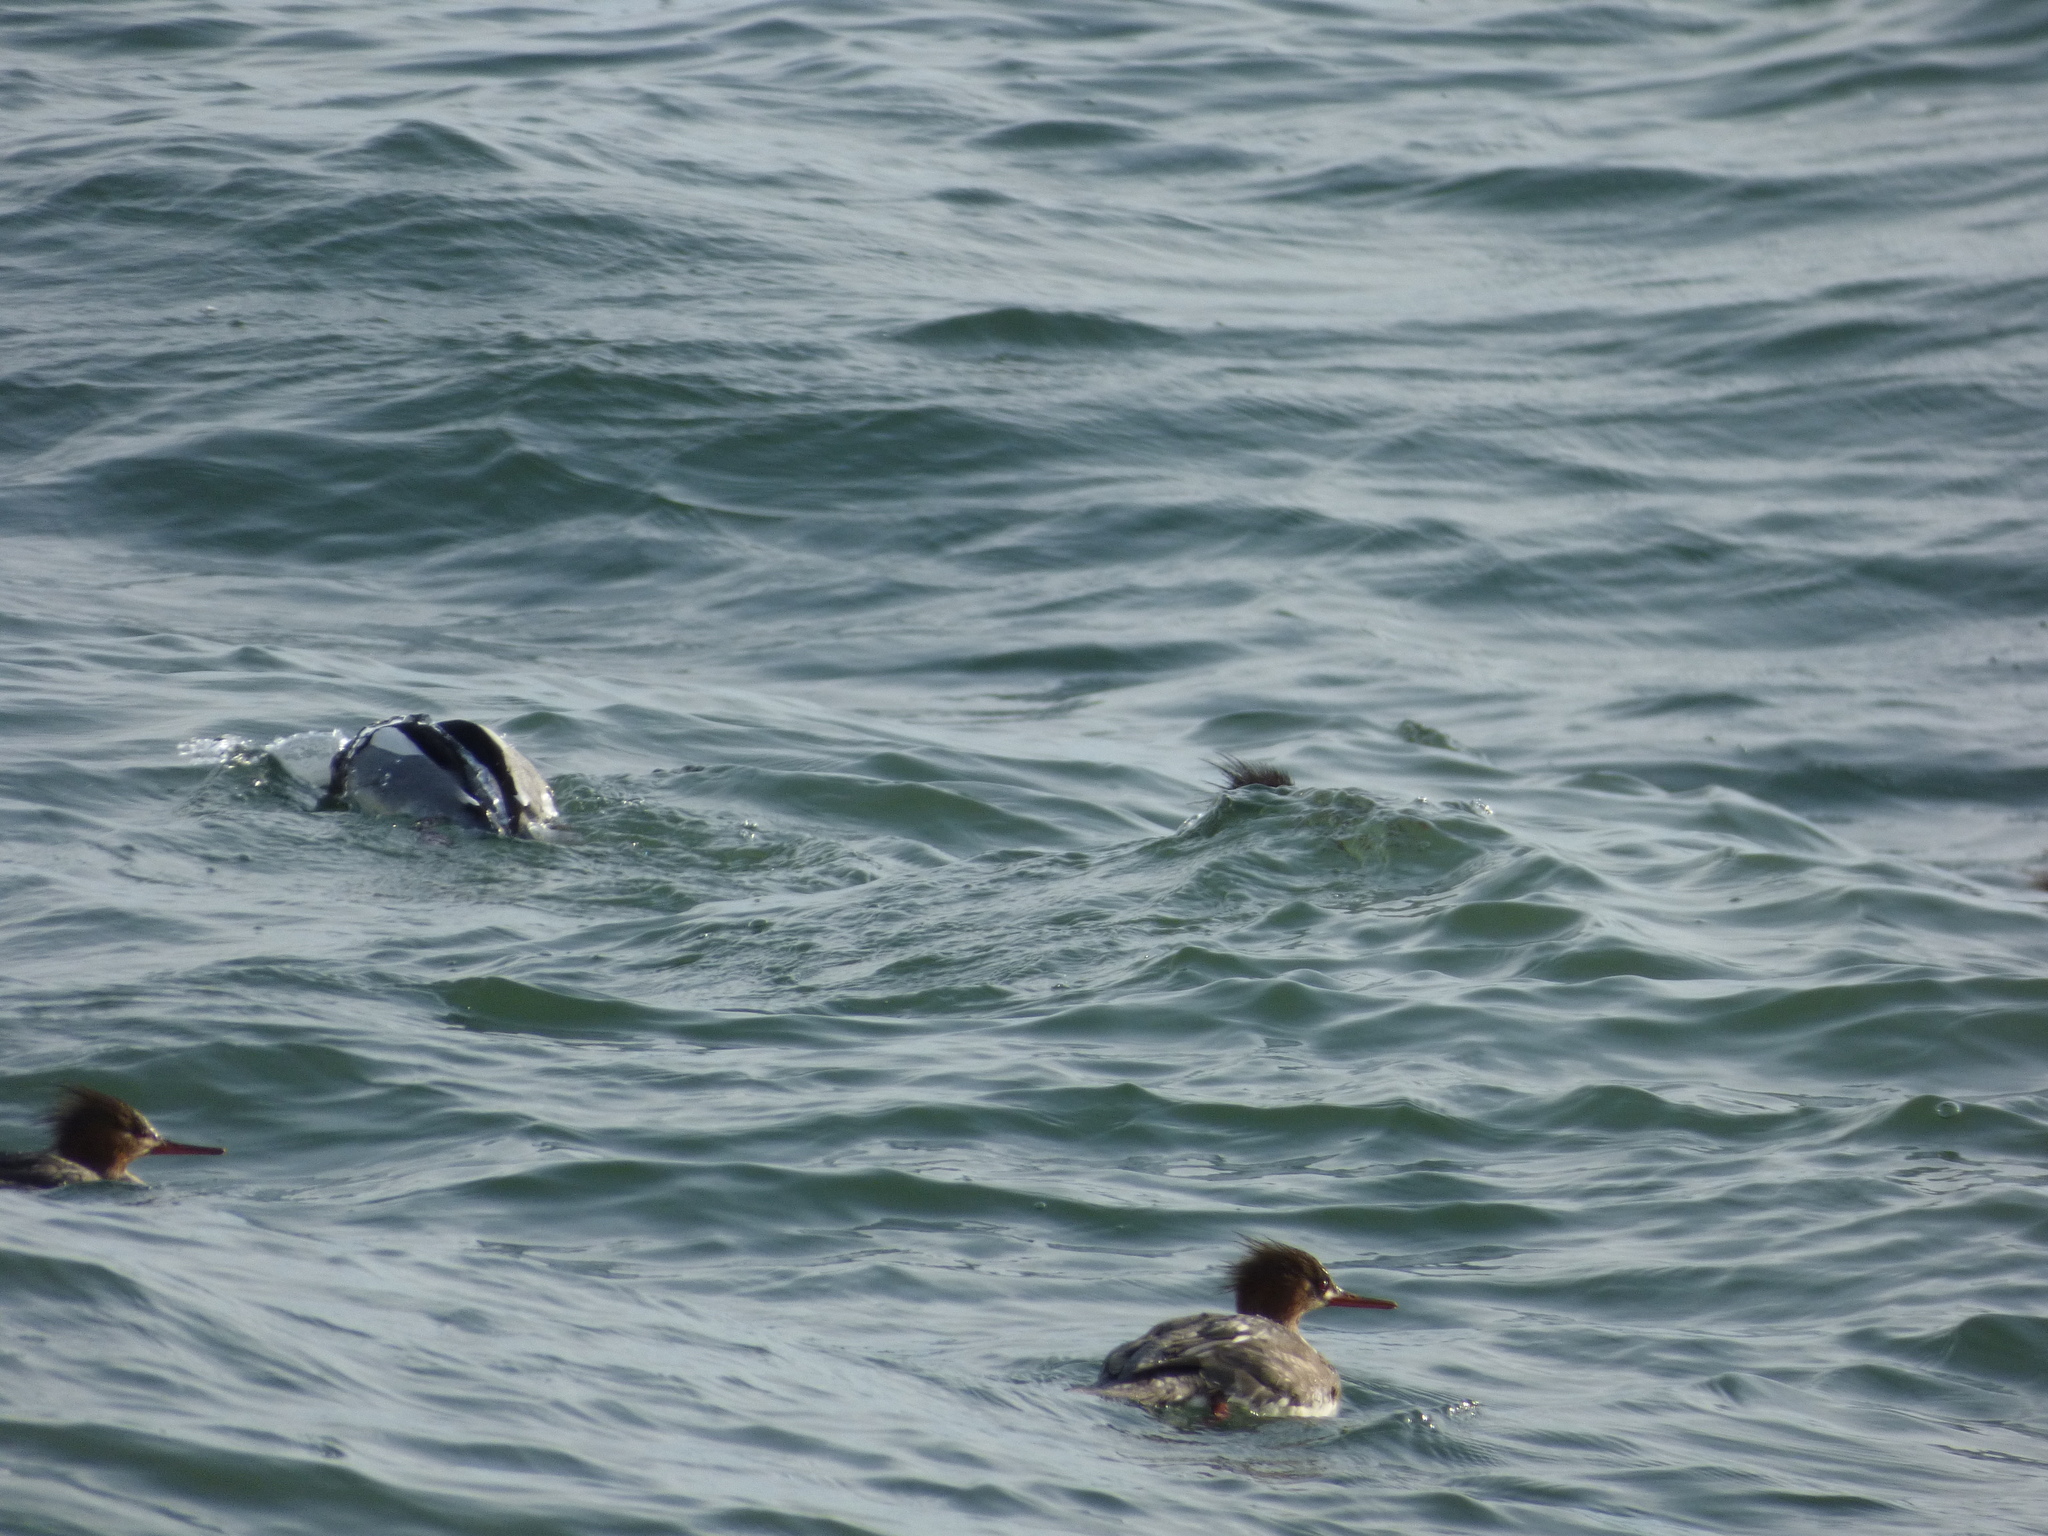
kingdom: Animalia
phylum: Chordata
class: Aves
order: Anseriformes
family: Anatidae
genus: Mergus
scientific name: Mergus serrator
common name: Red-breasted merganser
